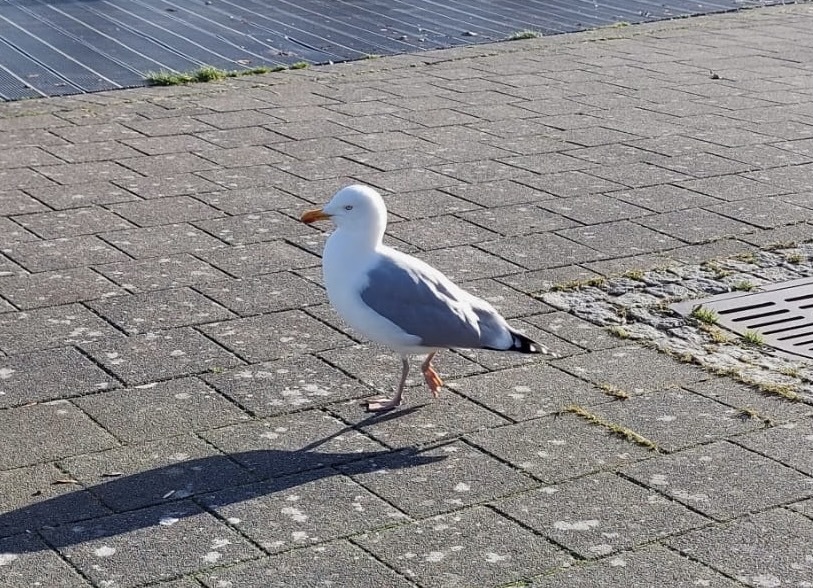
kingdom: Animalia
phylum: Chordata
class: Aves
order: Charadriiformes
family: Laridae
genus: Larus
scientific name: Larus argentatus
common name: Herring gull
